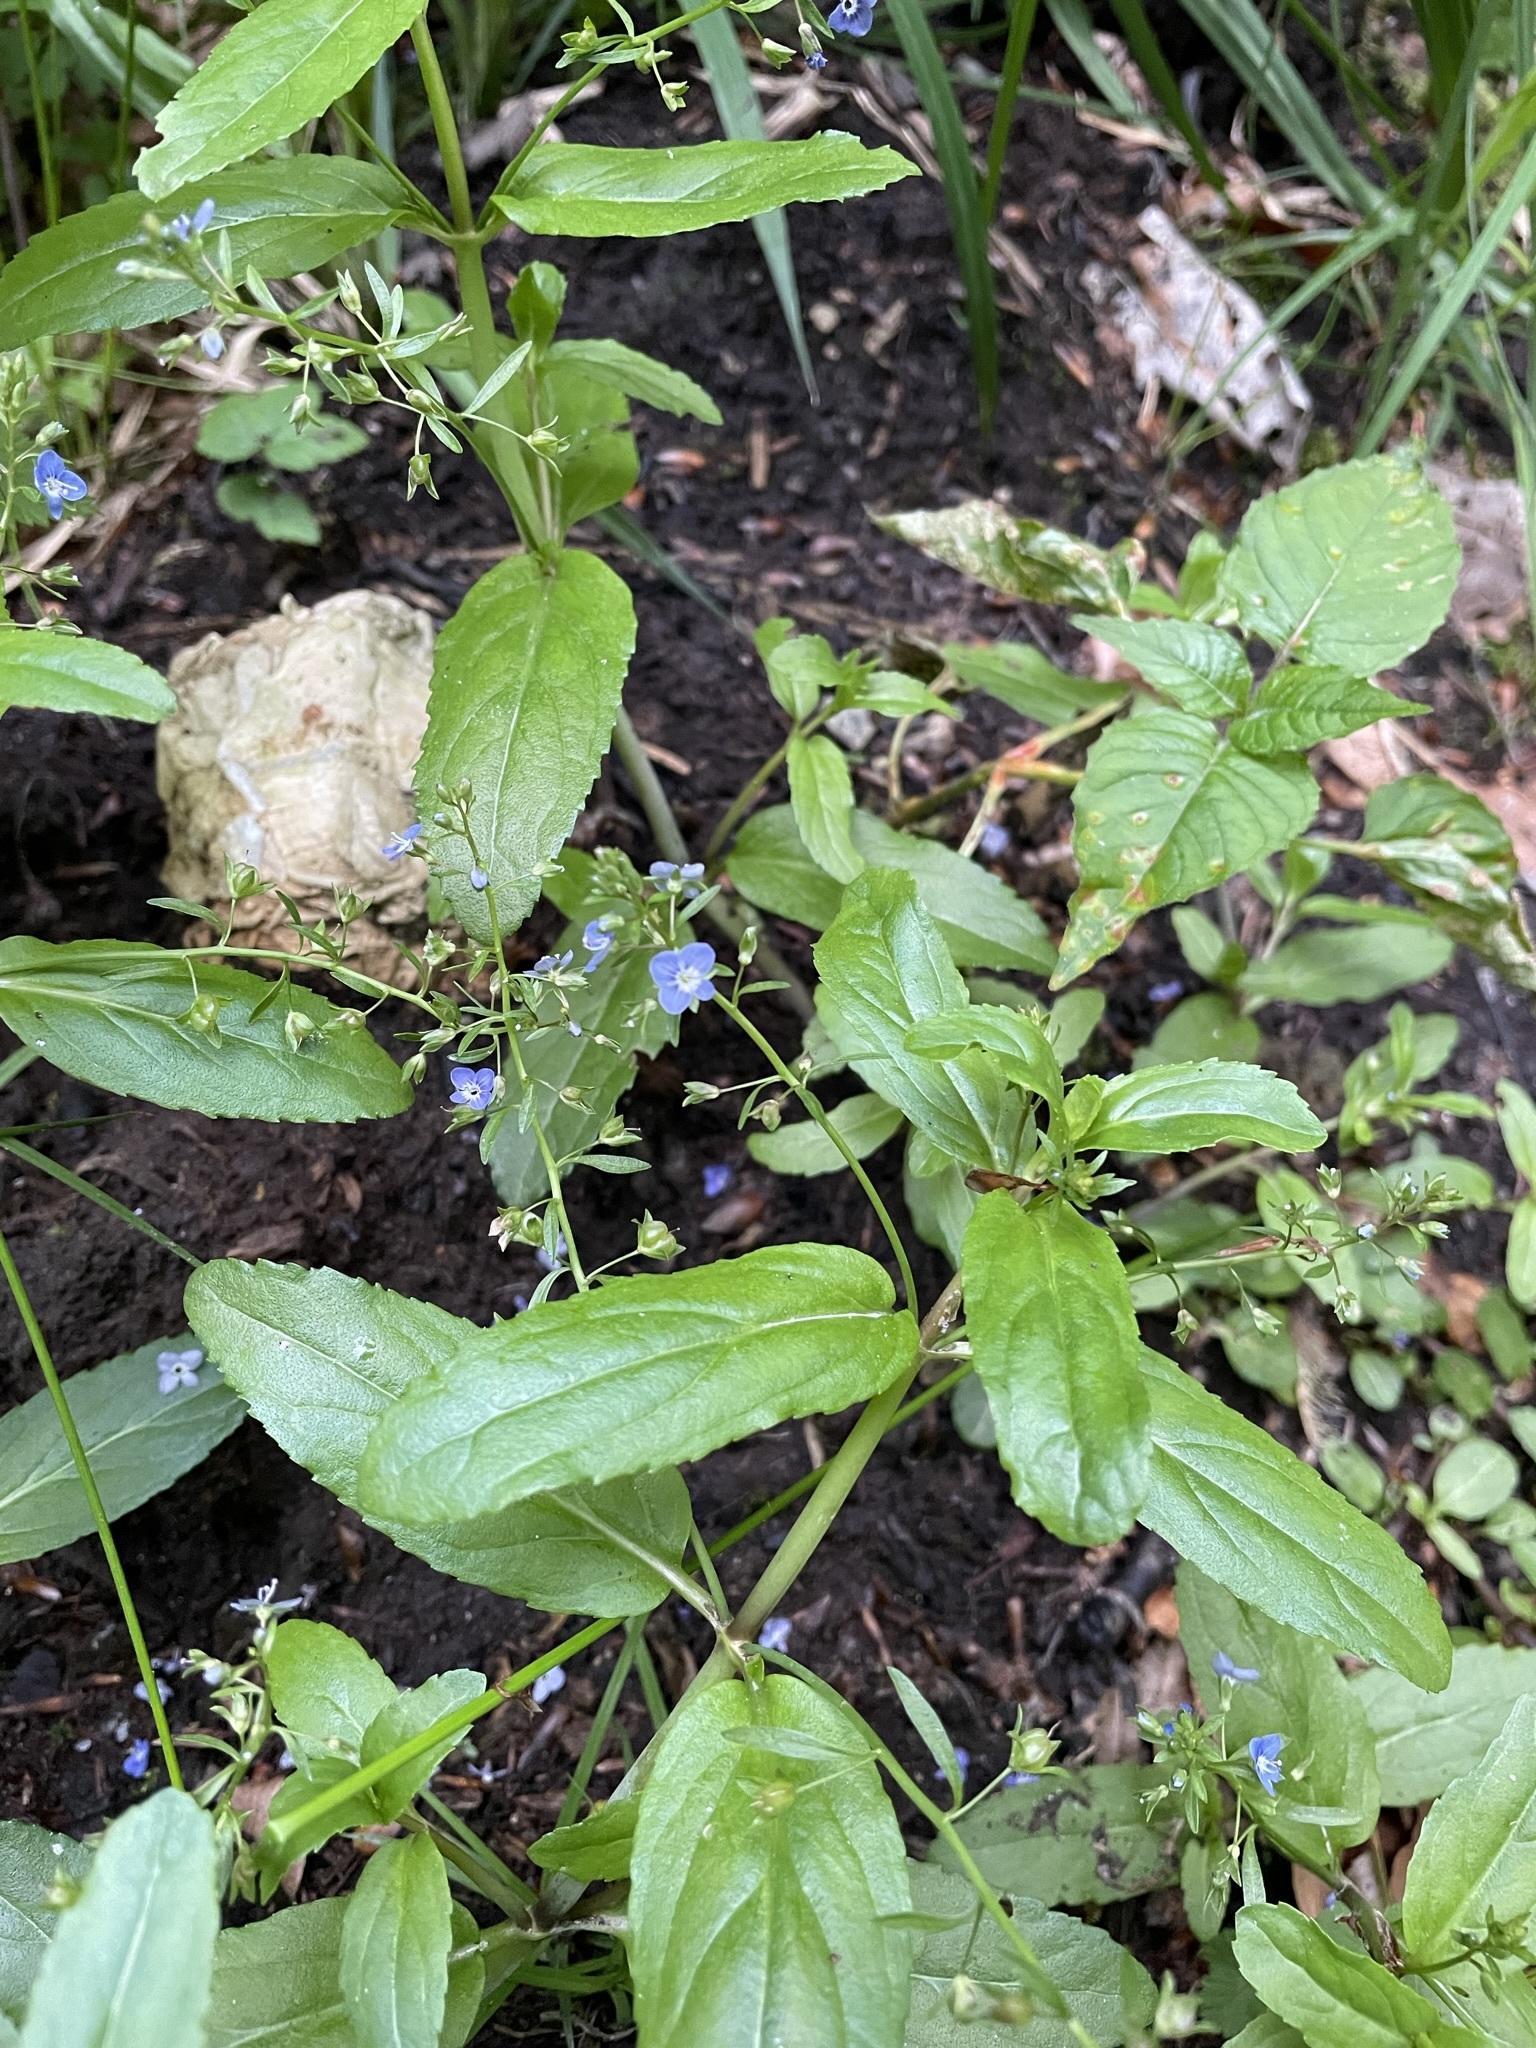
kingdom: Plantae
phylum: Tracheophyta
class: Magnoliopsida
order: Lamiales
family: Plantaginaceae
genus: Veronica
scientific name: Veronica beccabunga
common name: Brooklime
